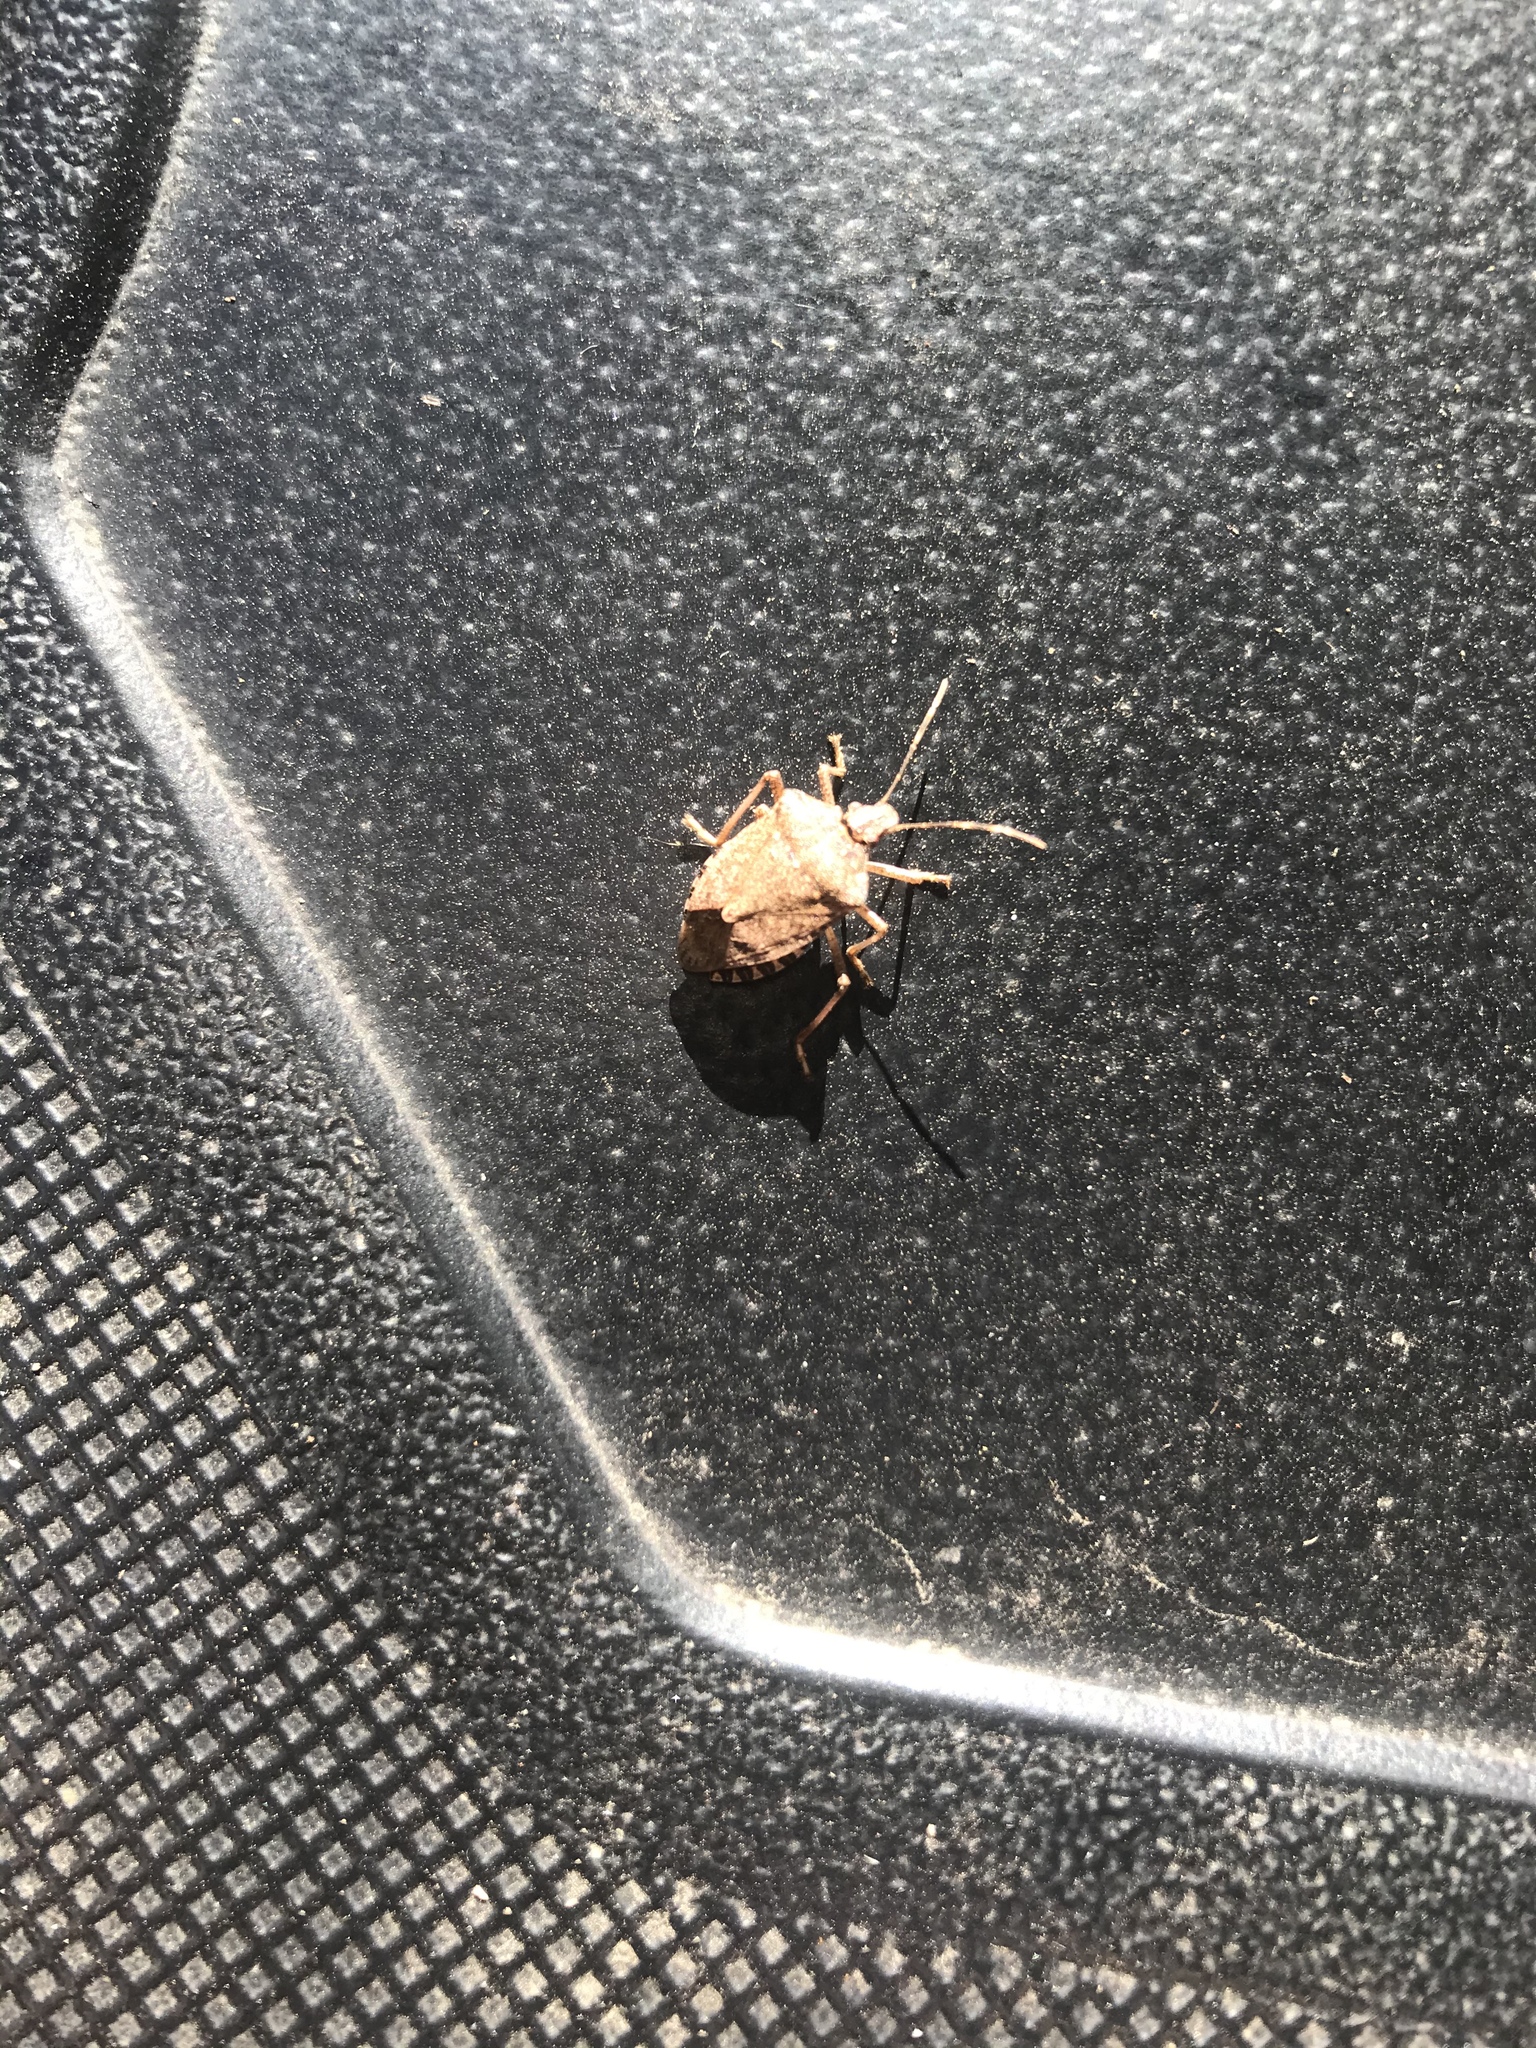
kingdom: Animalia
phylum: Arthropoda
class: Insecta
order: Hemiptera
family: Pentatomidae
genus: Halyomorpha
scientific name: Halyomorpha halys
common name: Brown marmorated stink bug
